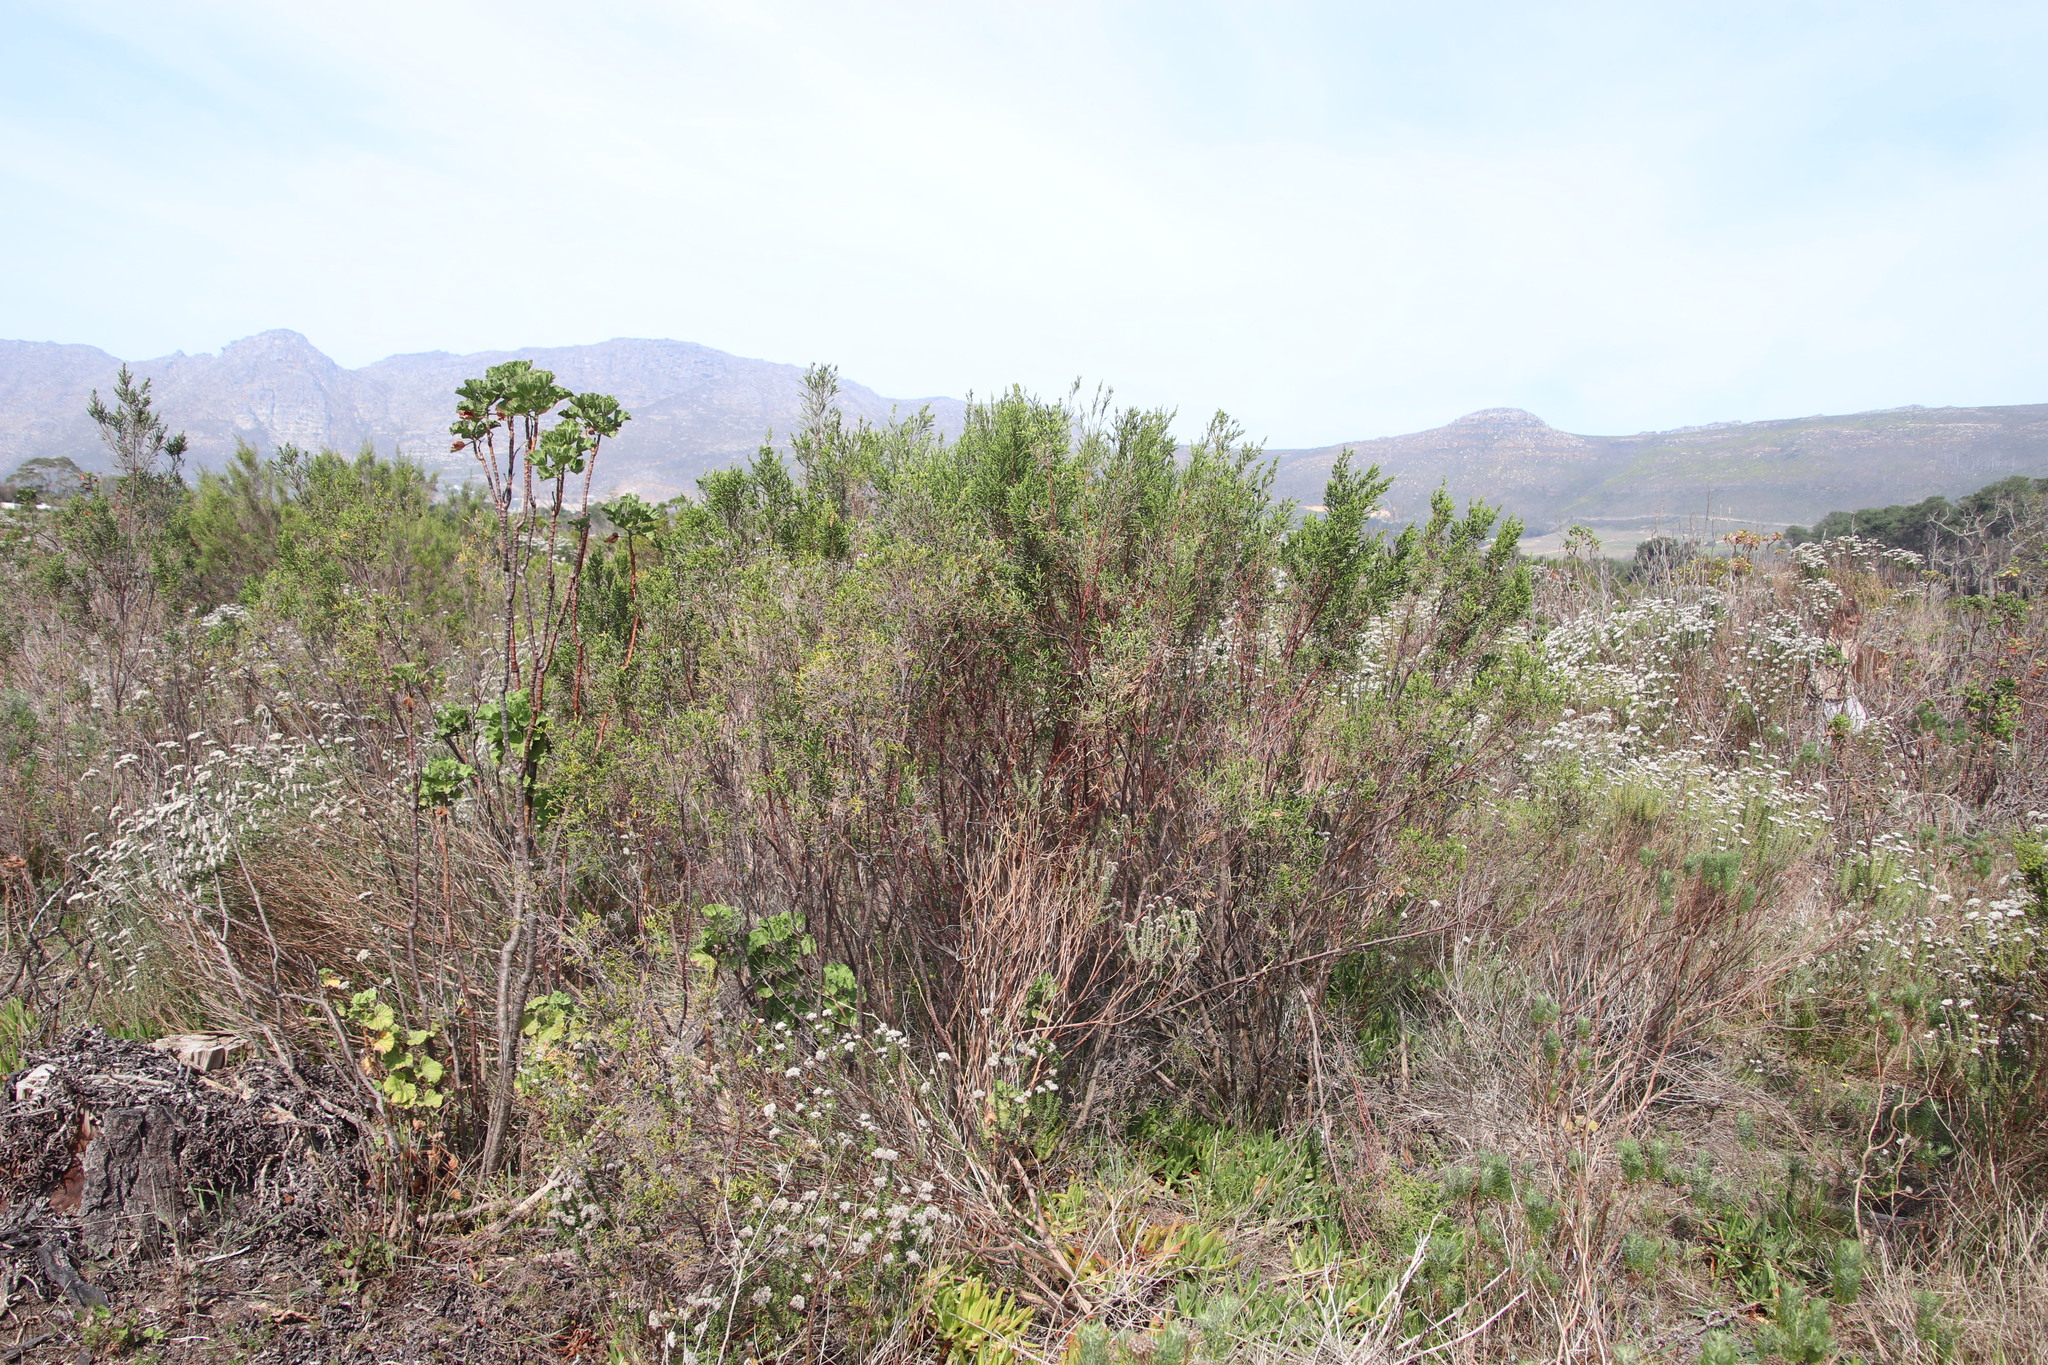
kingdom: Plantae
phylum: Tracheophyta
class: Magnoliopsida
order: Malvales
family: Thymelaeaceae
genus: Passerina
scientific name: Passerina corymbosa
